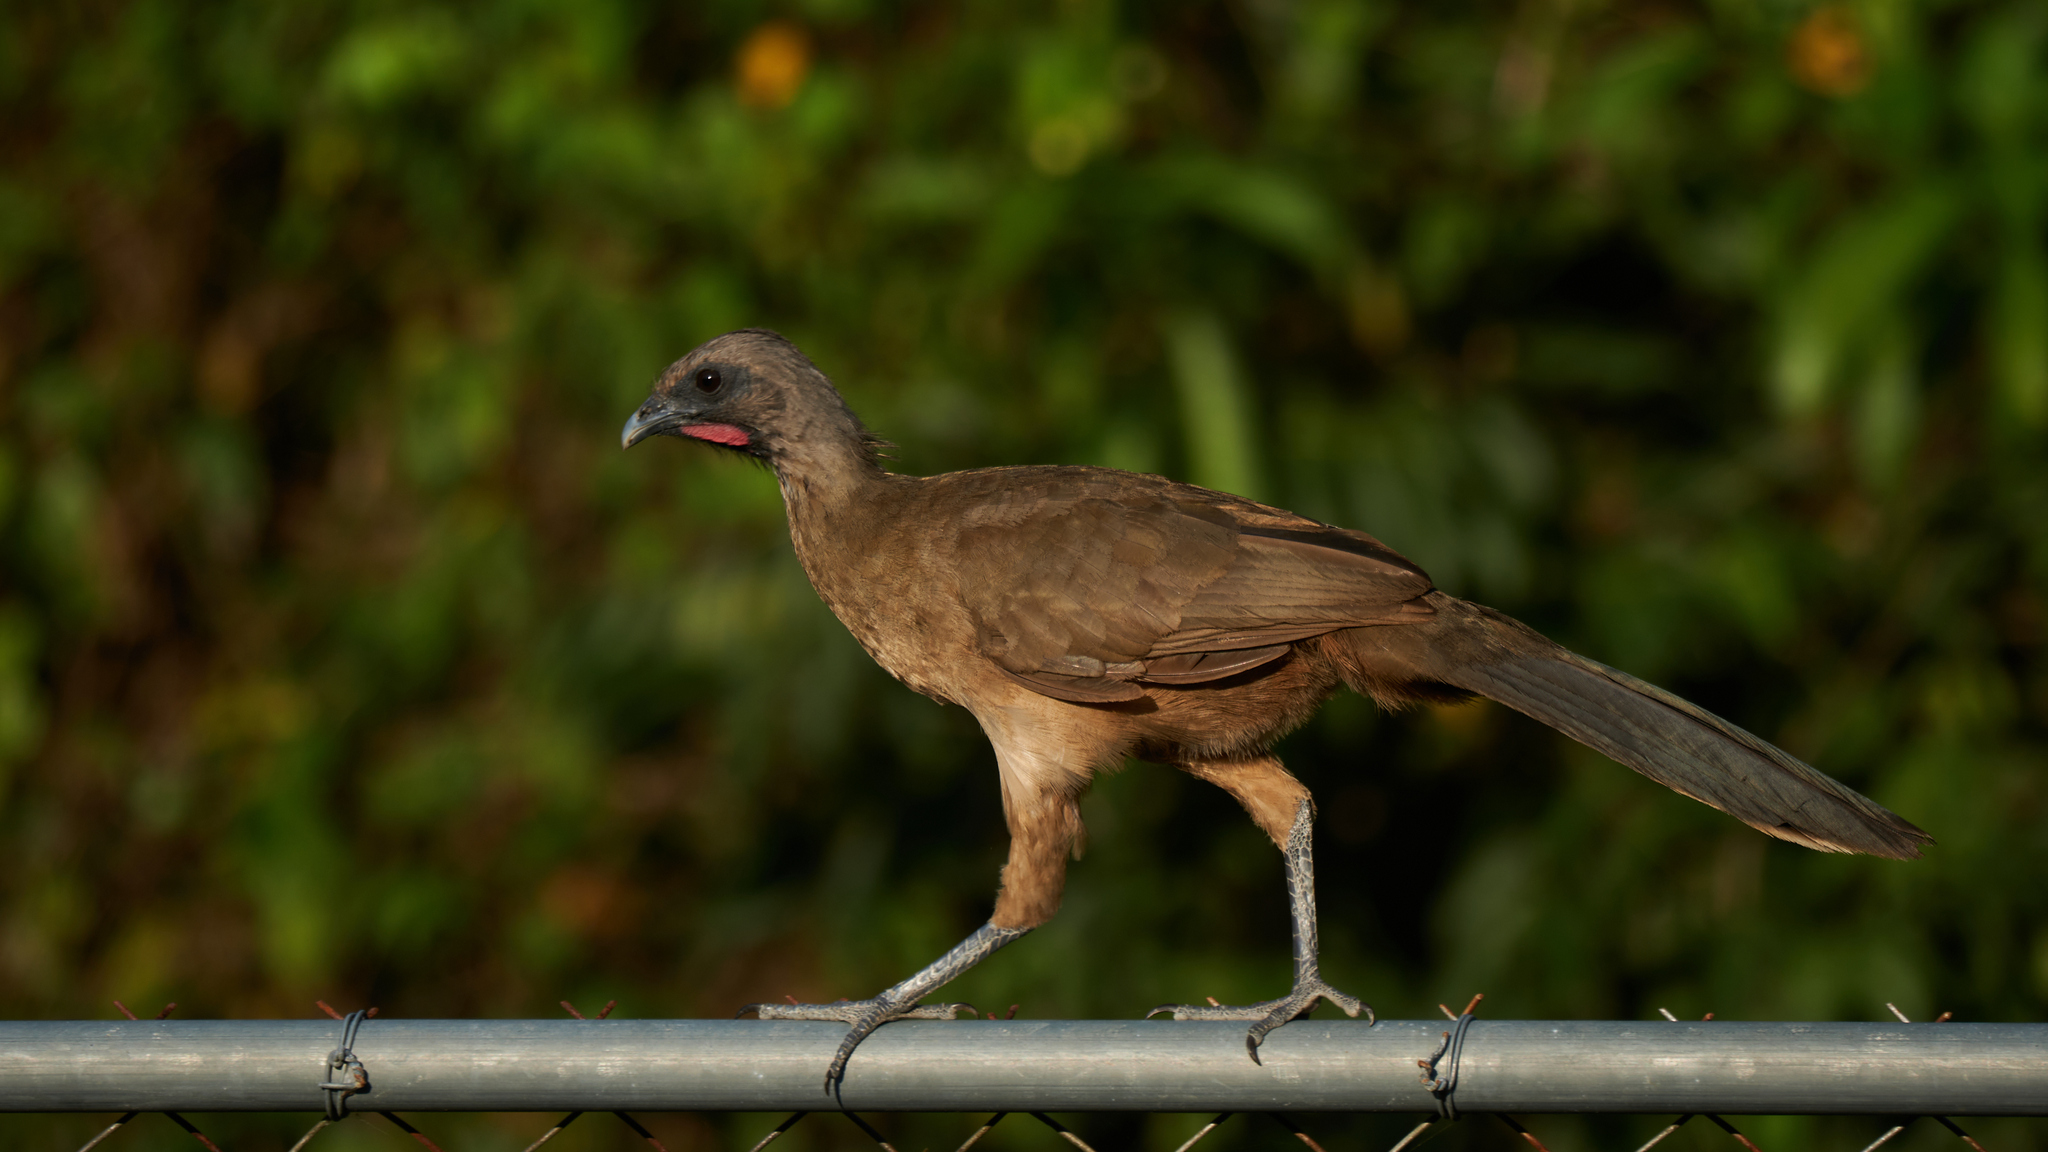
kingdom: Animalia
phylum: Chordata
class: Aves
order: Galliformes
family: Cracidae
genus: Ortalis
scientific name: Ortalis vetula
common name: Plain chachalaca
